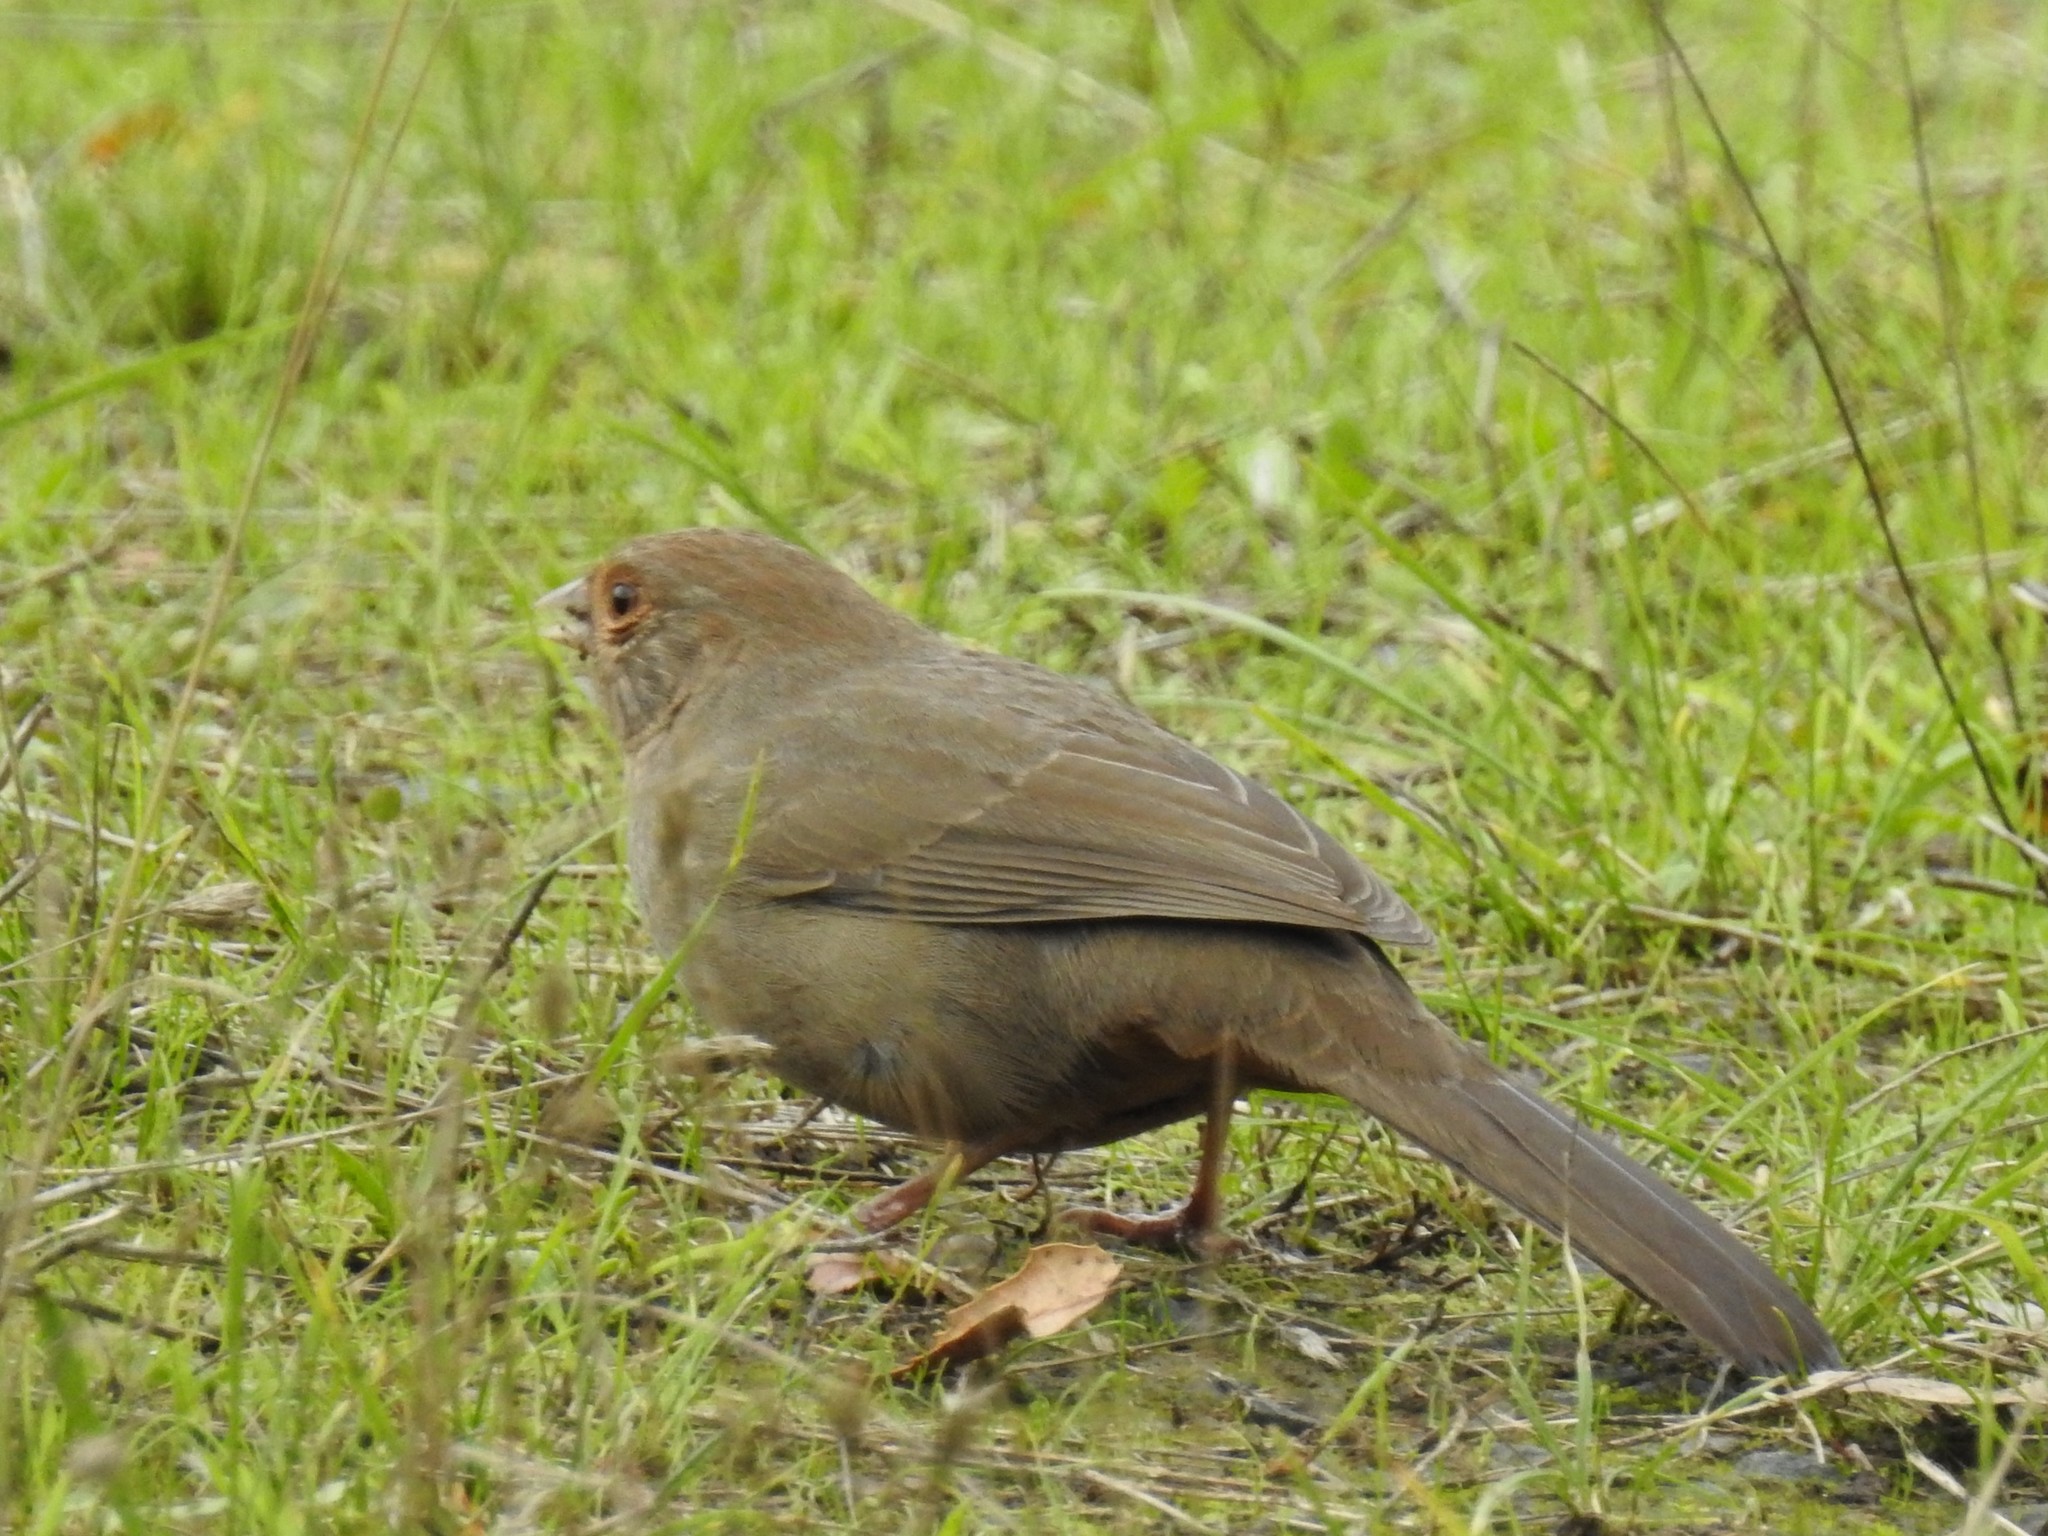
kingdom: Animalia
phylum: Chordata
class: Aves
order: Passeriformes
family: Passerellidae
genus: Melozone
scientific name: Melozone crissalis
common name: California towhee
